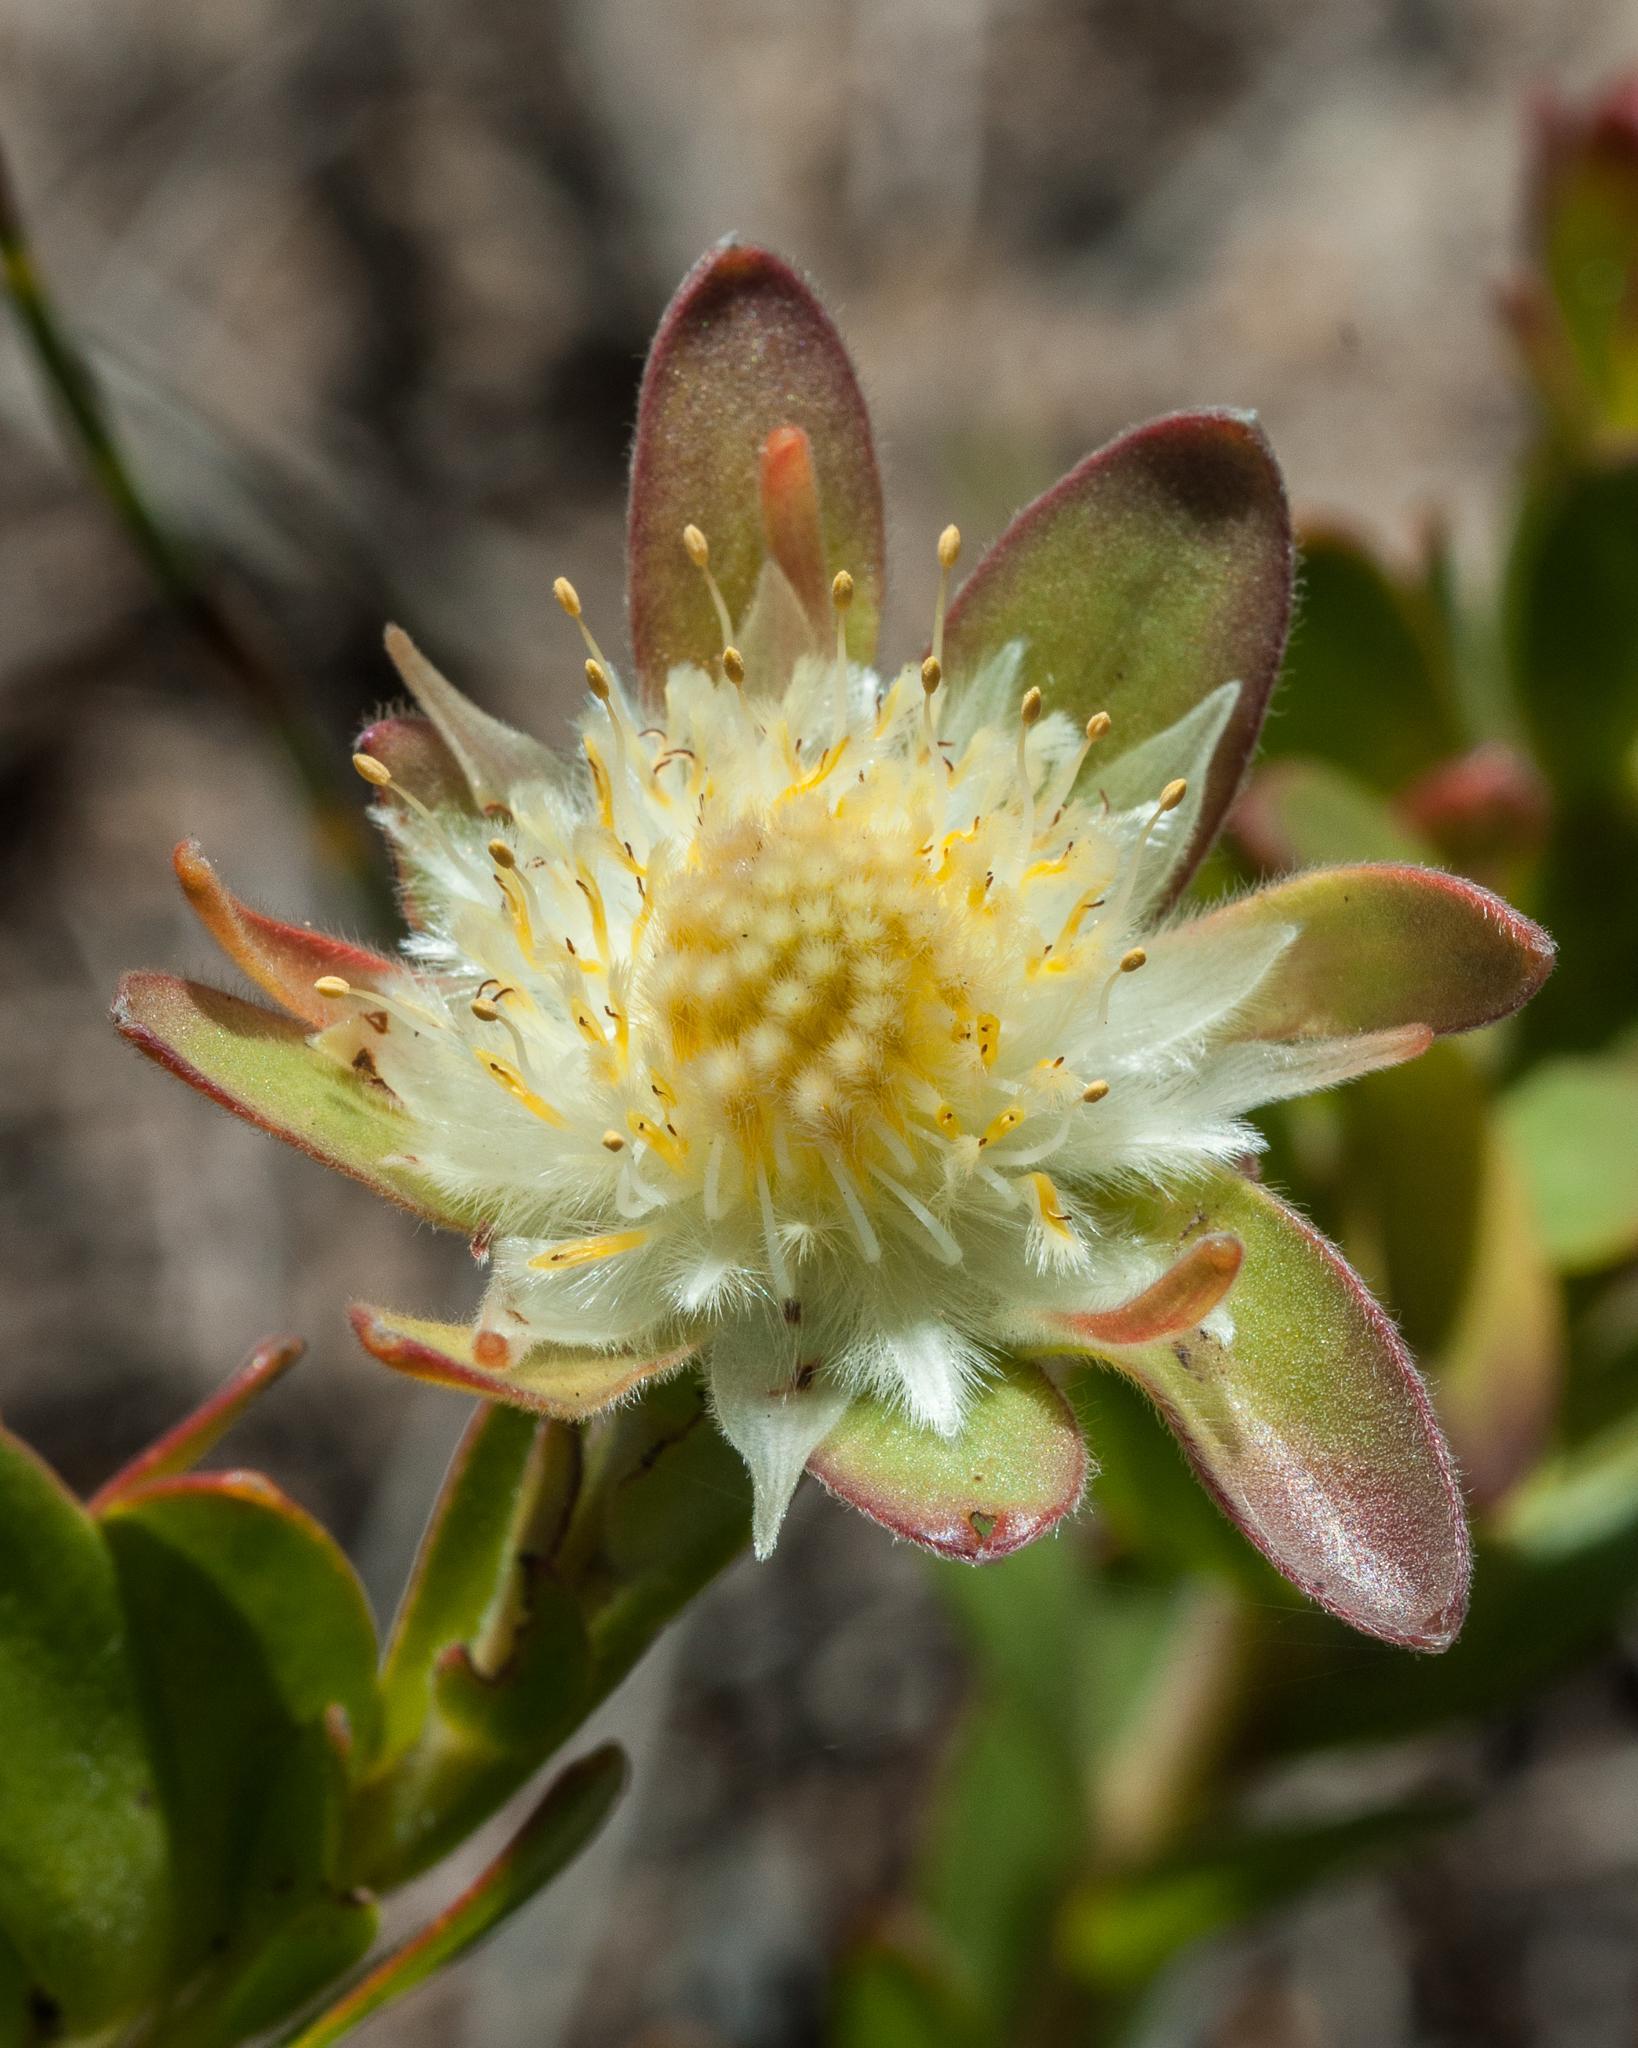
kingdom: Plantae
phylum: Tracheophyta
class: Magnoliopsida
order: Proteales
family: Proteaceae
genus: Diastella
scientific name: Diastella thymelaeoides
